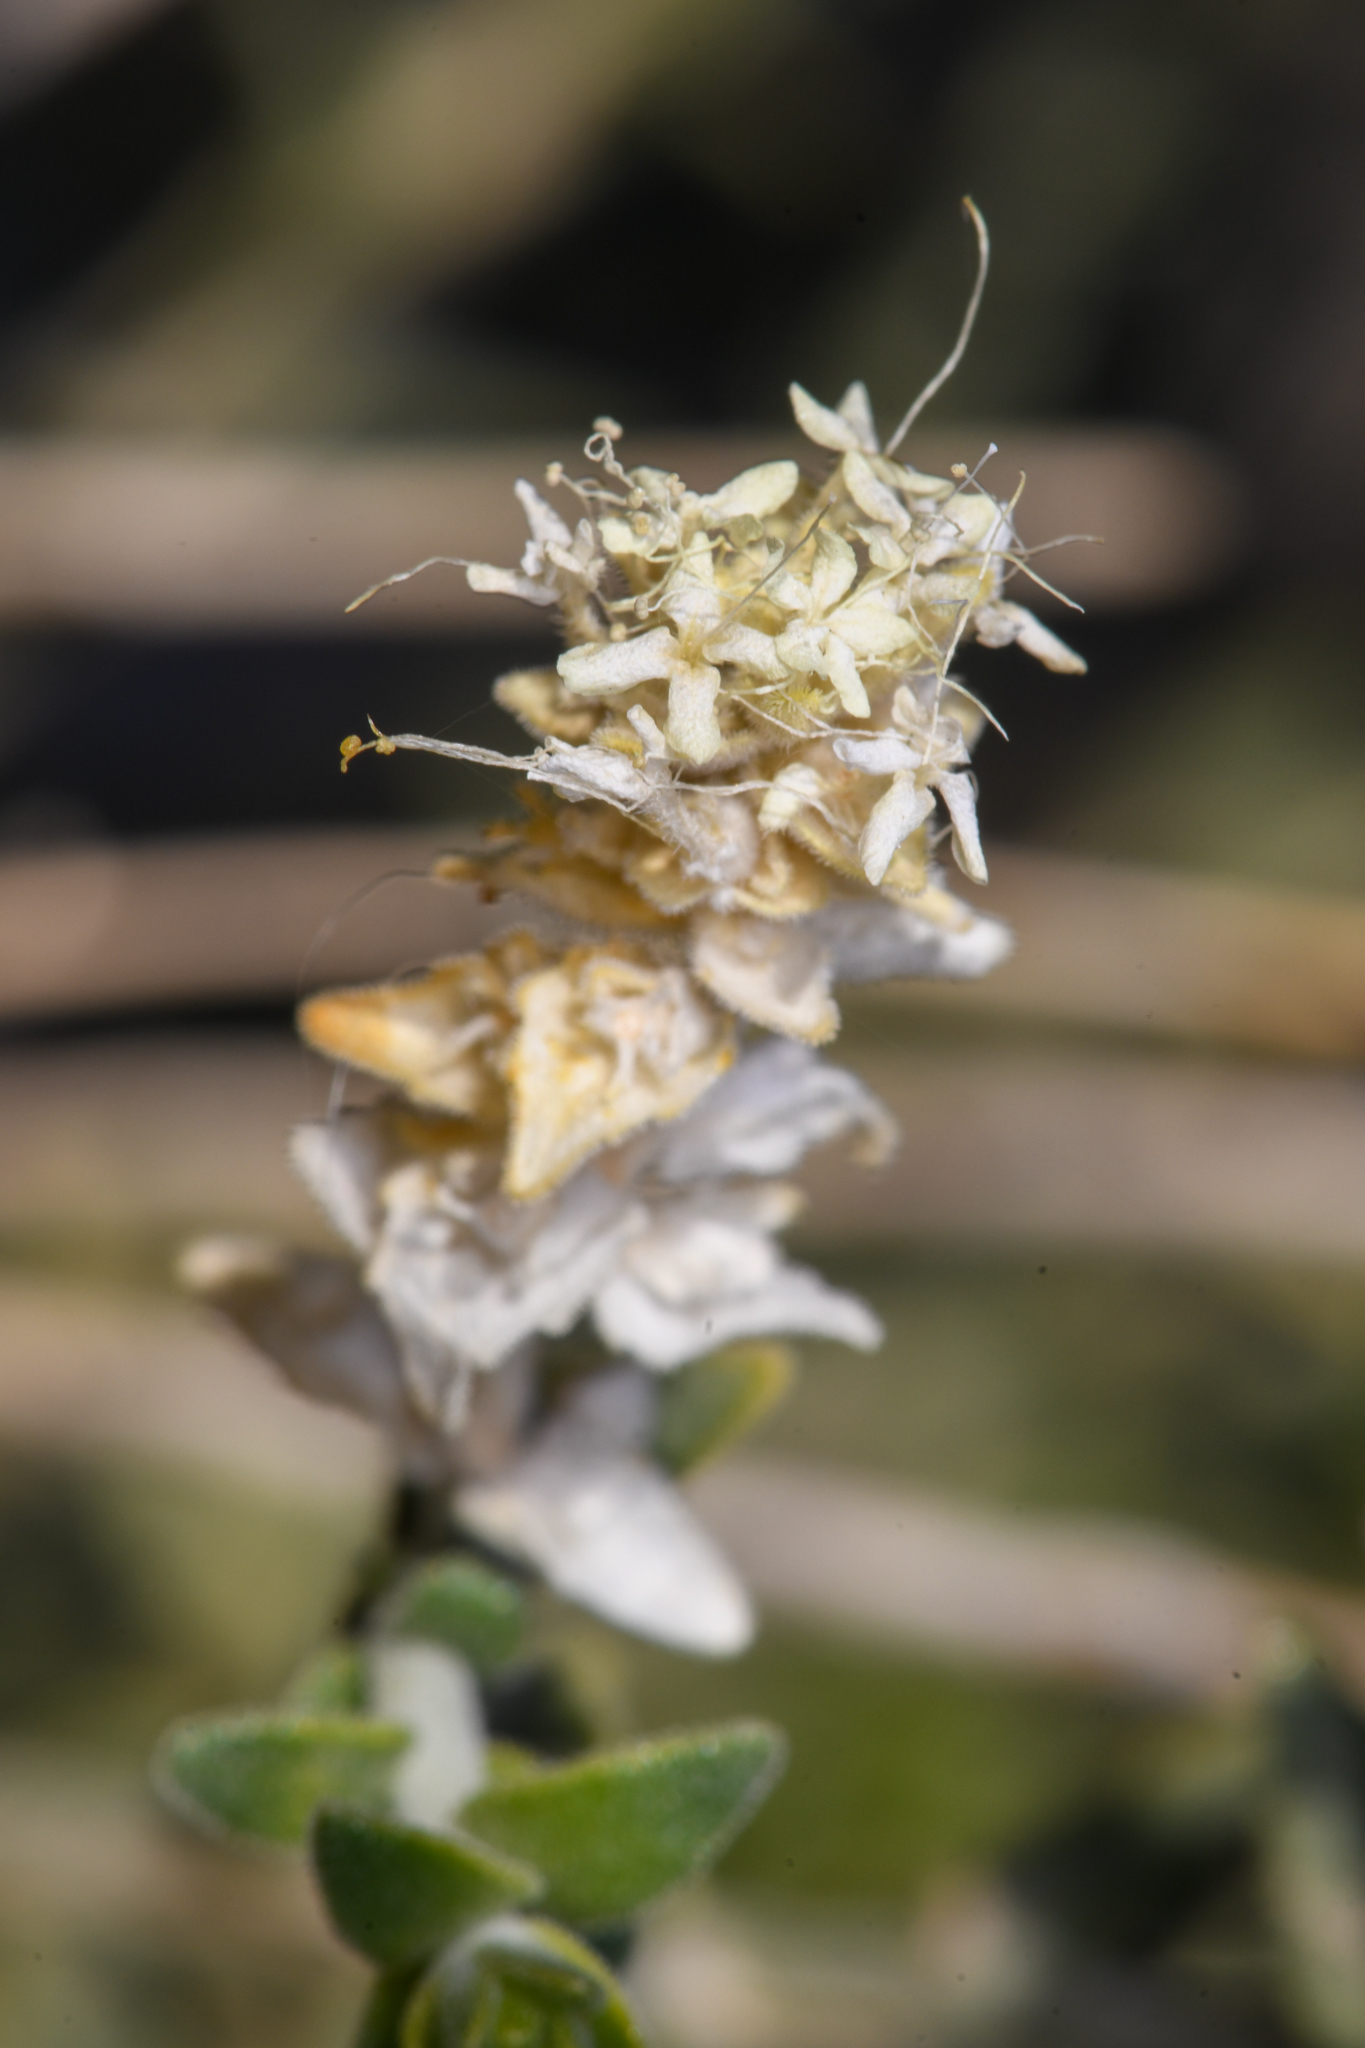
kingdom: Plantae
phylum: Tracheophyta
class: Magnoliopsida
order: Cornales
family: Loasaceae
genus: Petalonyx
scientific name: Petalonyx thurberi
